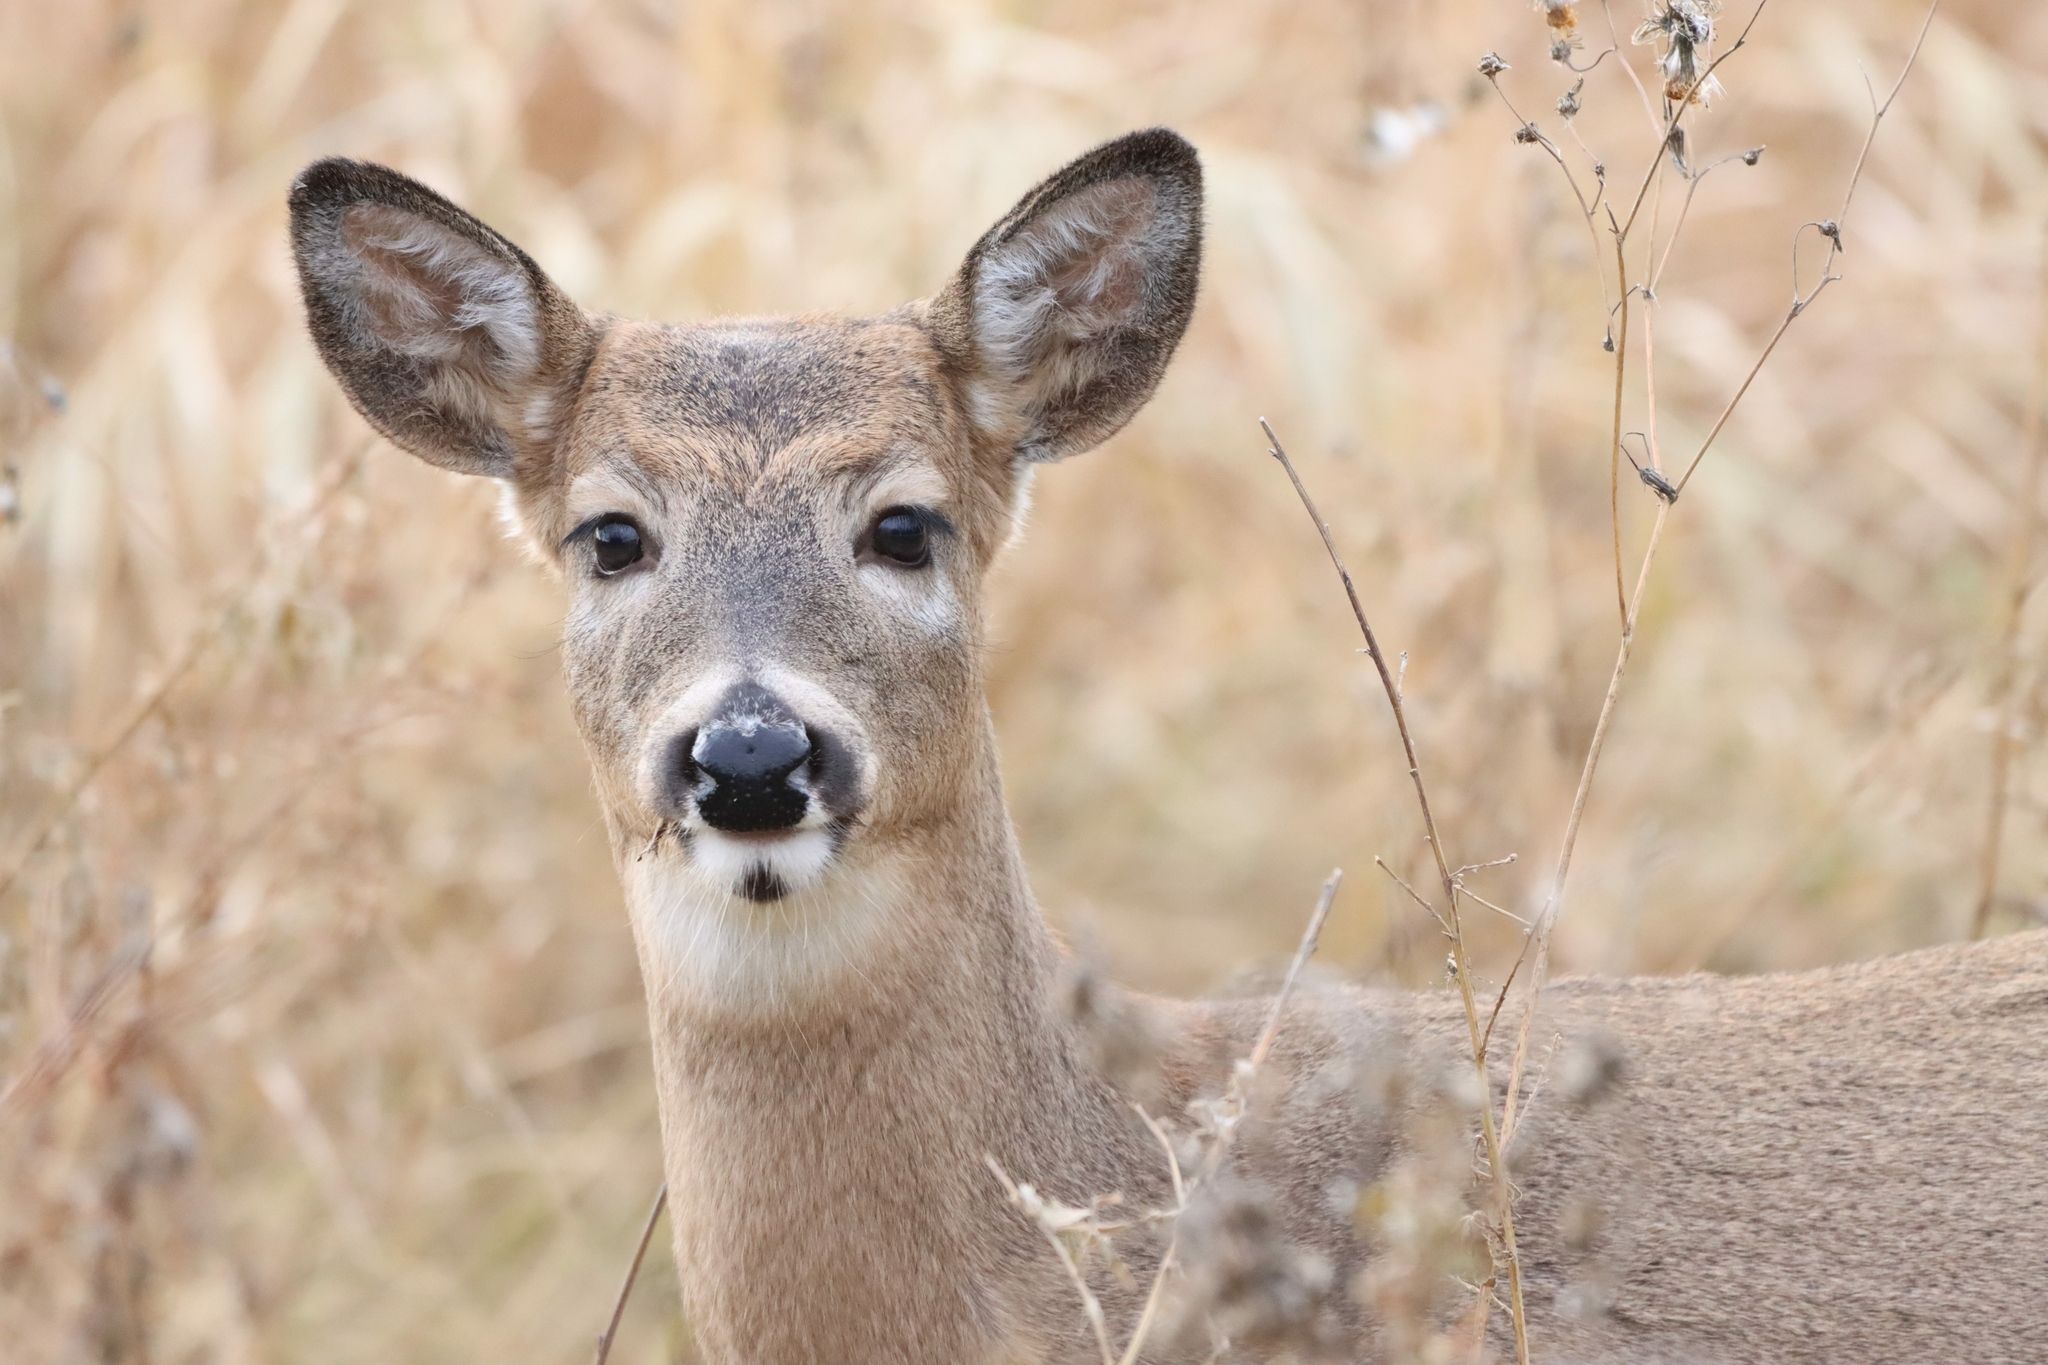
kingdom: Animalia
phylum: Chordata
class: Mammalia
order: Artiodactyla
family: Cervidae
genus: Odocoileus
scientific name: Odocoileus virginianus
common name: White-tailed deer
